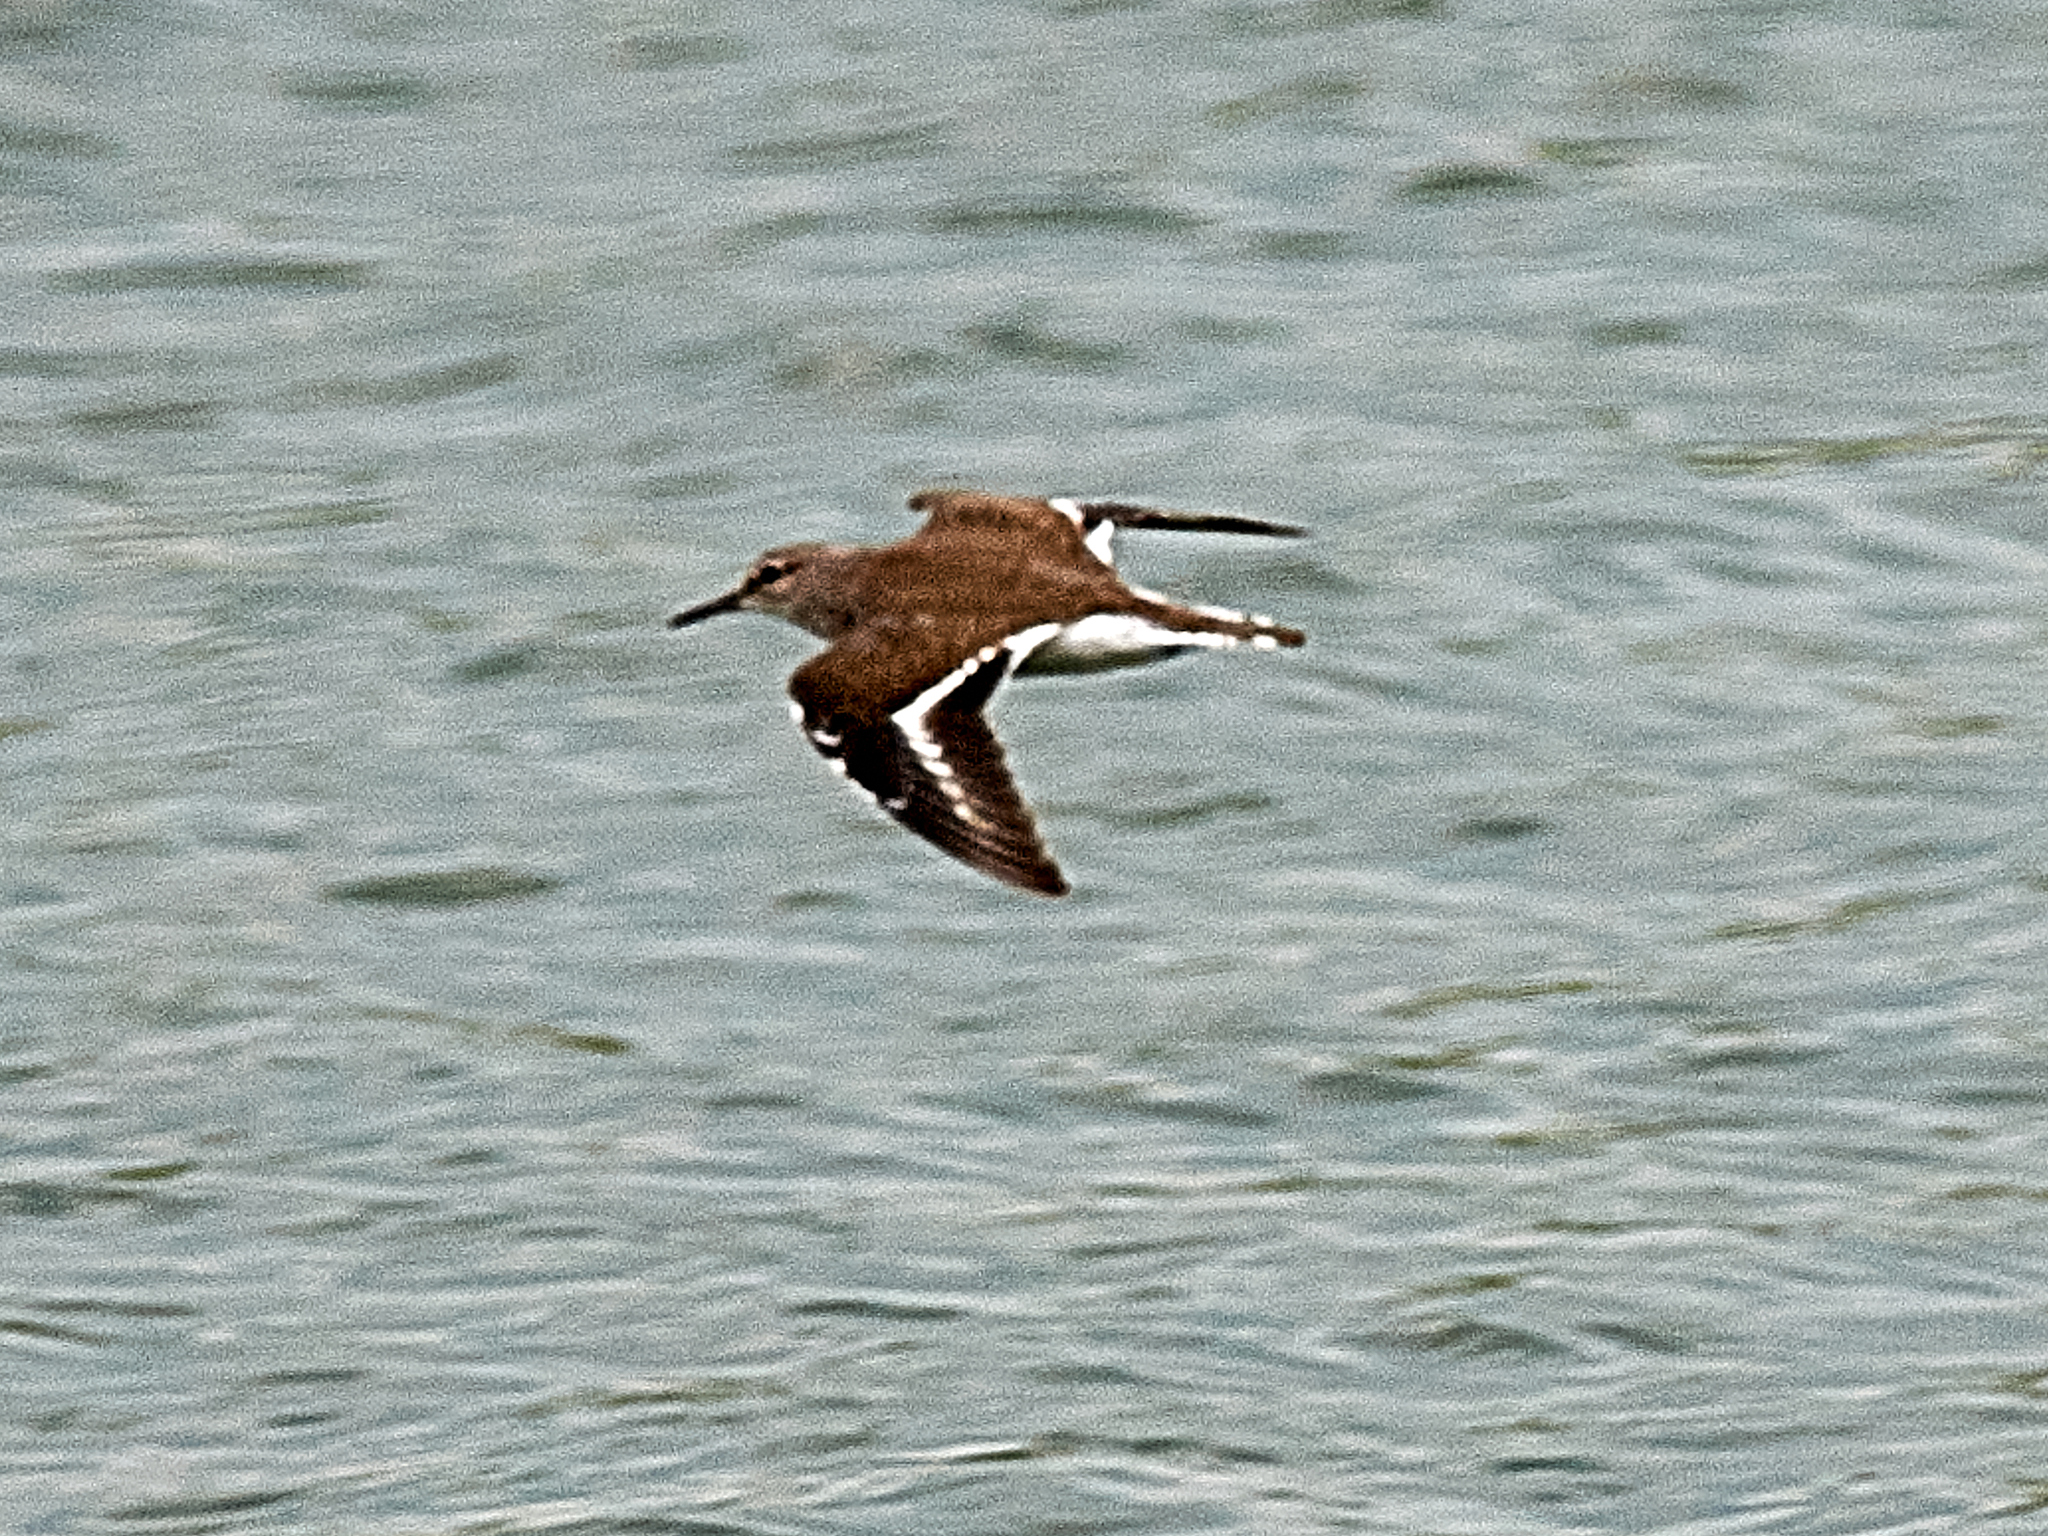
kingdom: Animalia
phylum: Chordata
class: Aves
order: Charadriiformes
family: Scolopacidae
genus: Actitis
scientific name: Actitis hypoleucos
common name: Common sandpiper
